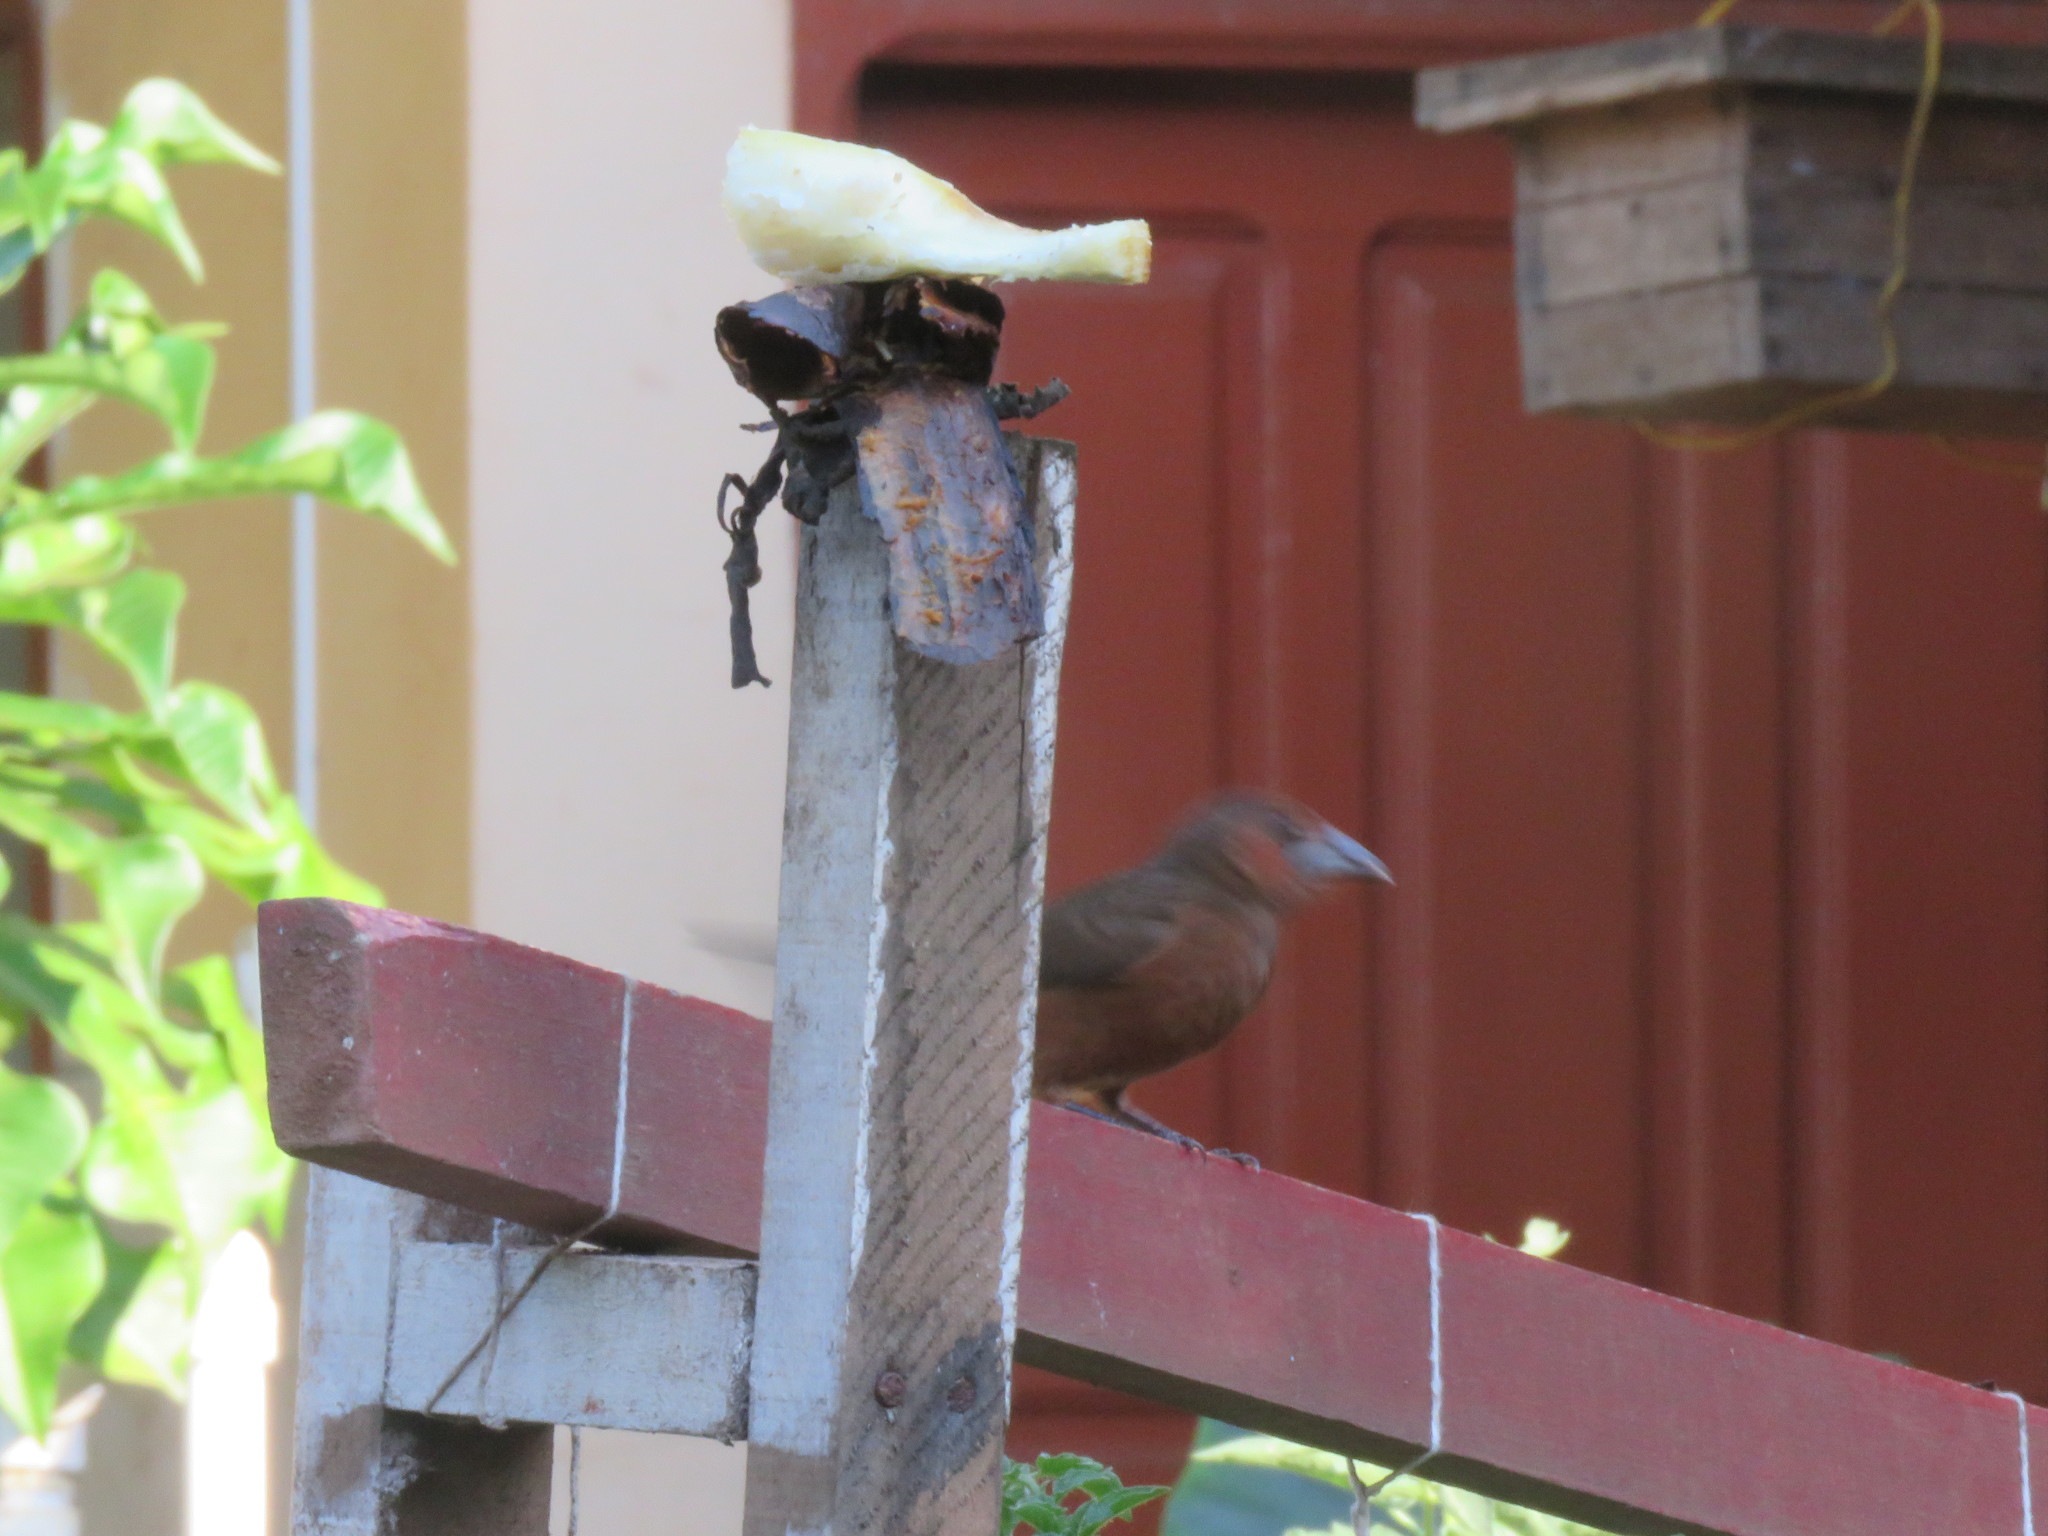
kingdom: Animalia
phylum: Chordata
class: Aves
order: Passeriformes
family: Thraupidae
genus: Ramphocelus
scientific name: Ramphocelus carbo
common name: Silver-beaked tanager
